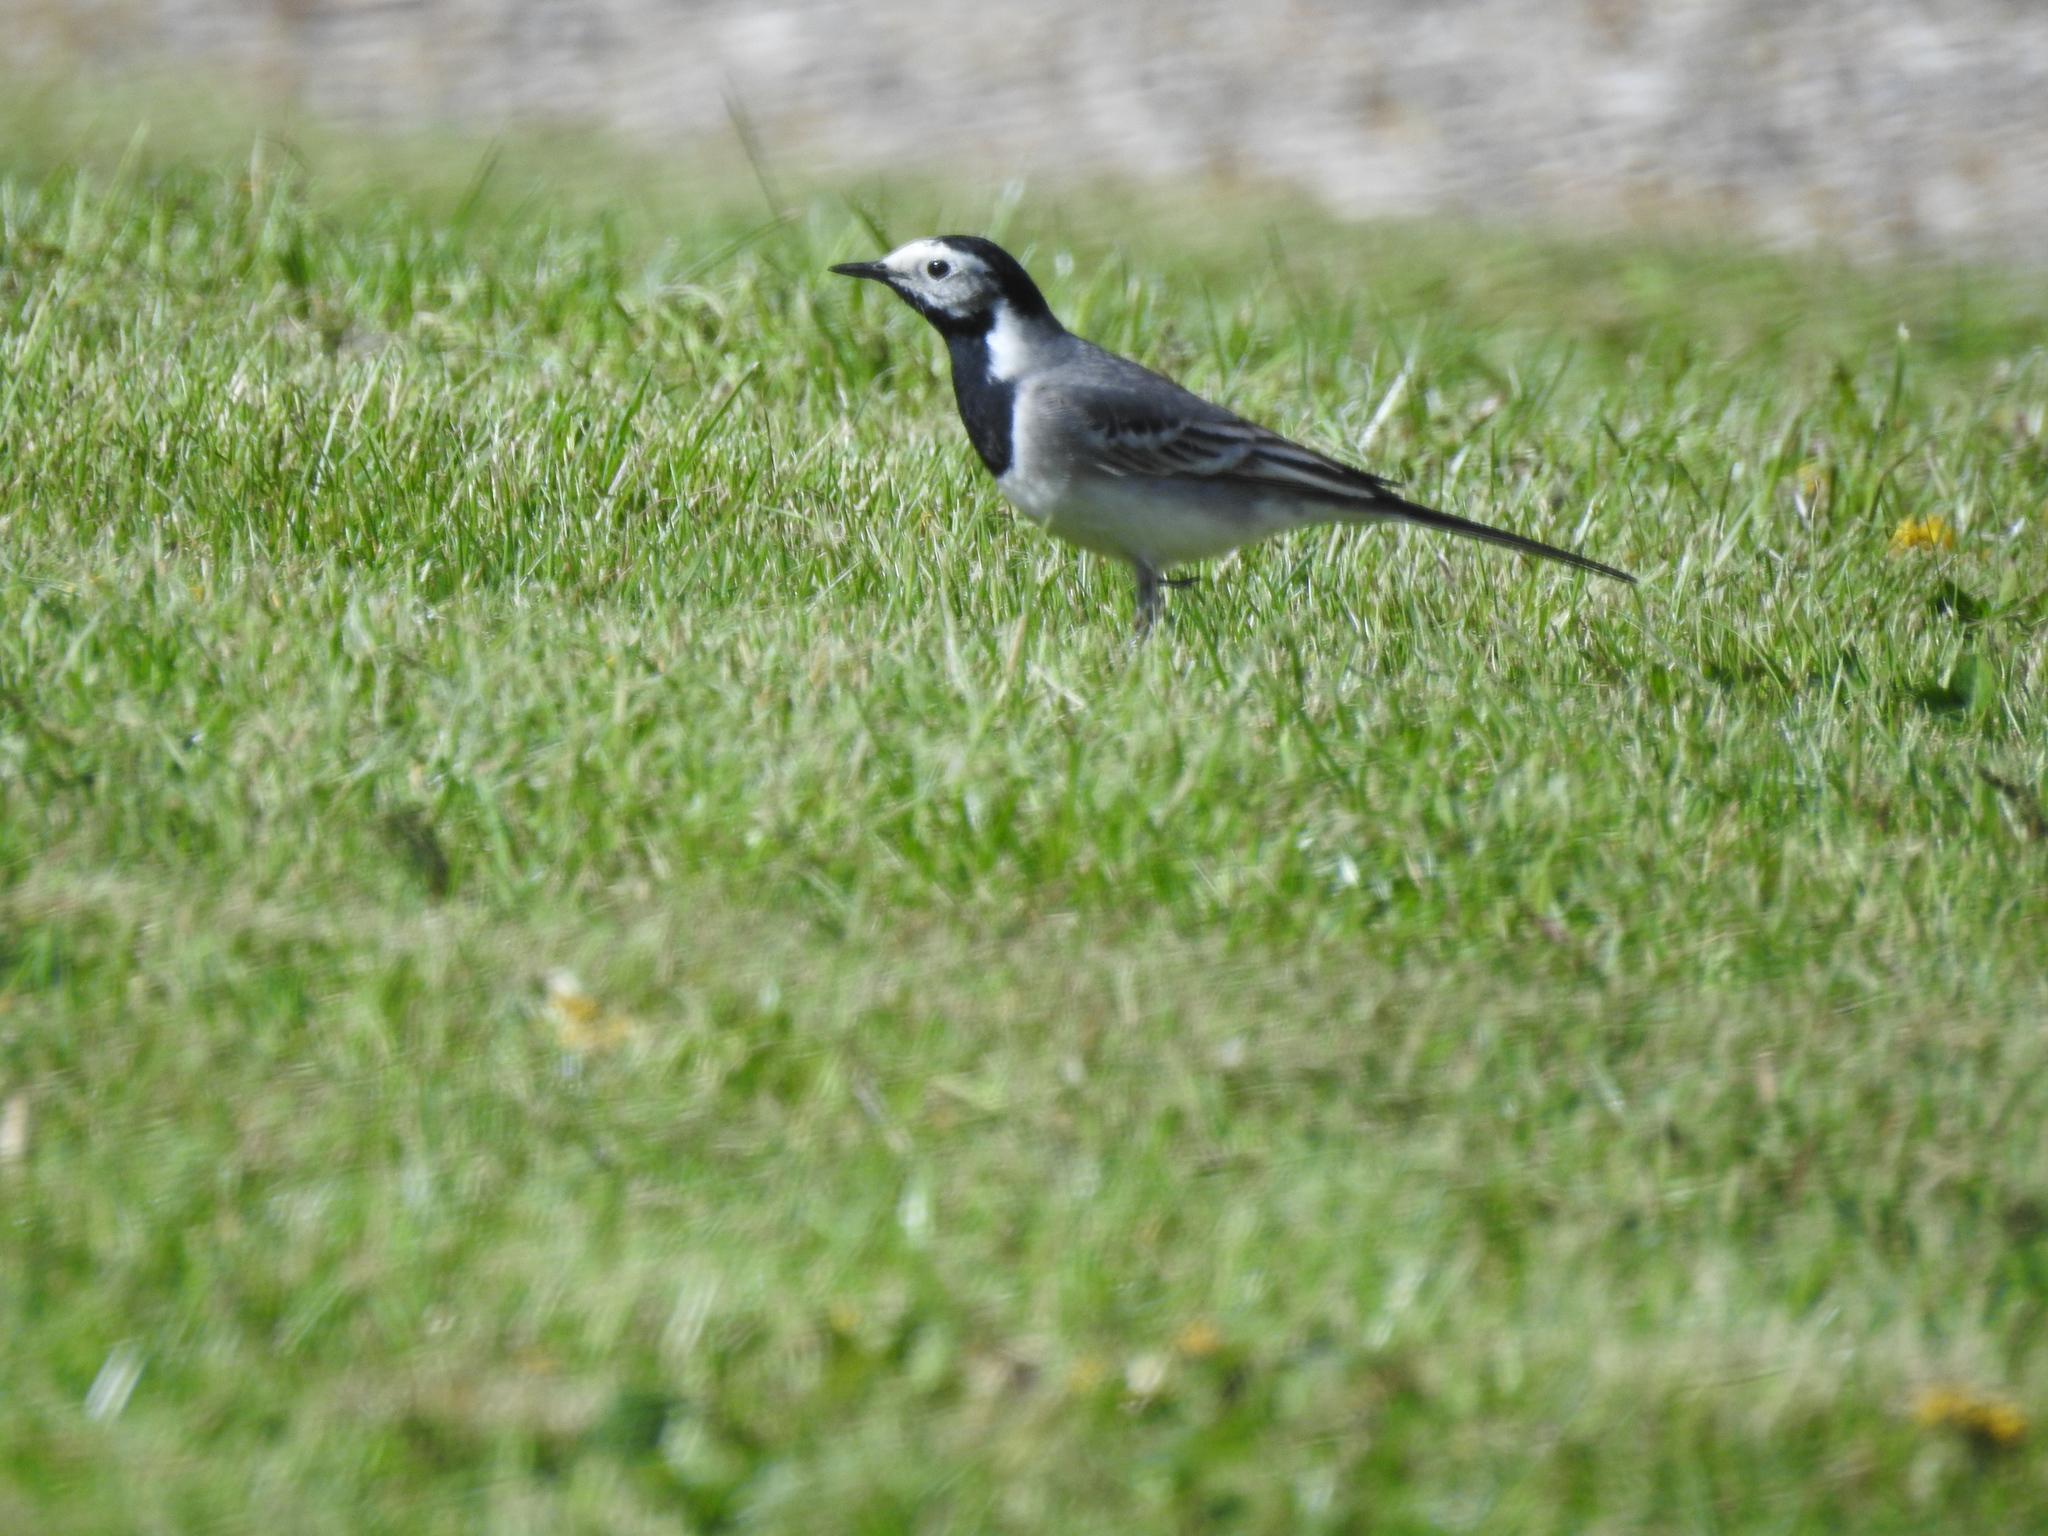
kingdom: Animalia
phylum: Chordata
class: Aves
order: Passeriformes
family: Motacillidae
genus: Motacilla
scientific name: Motacilla alba
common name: White wagtail
